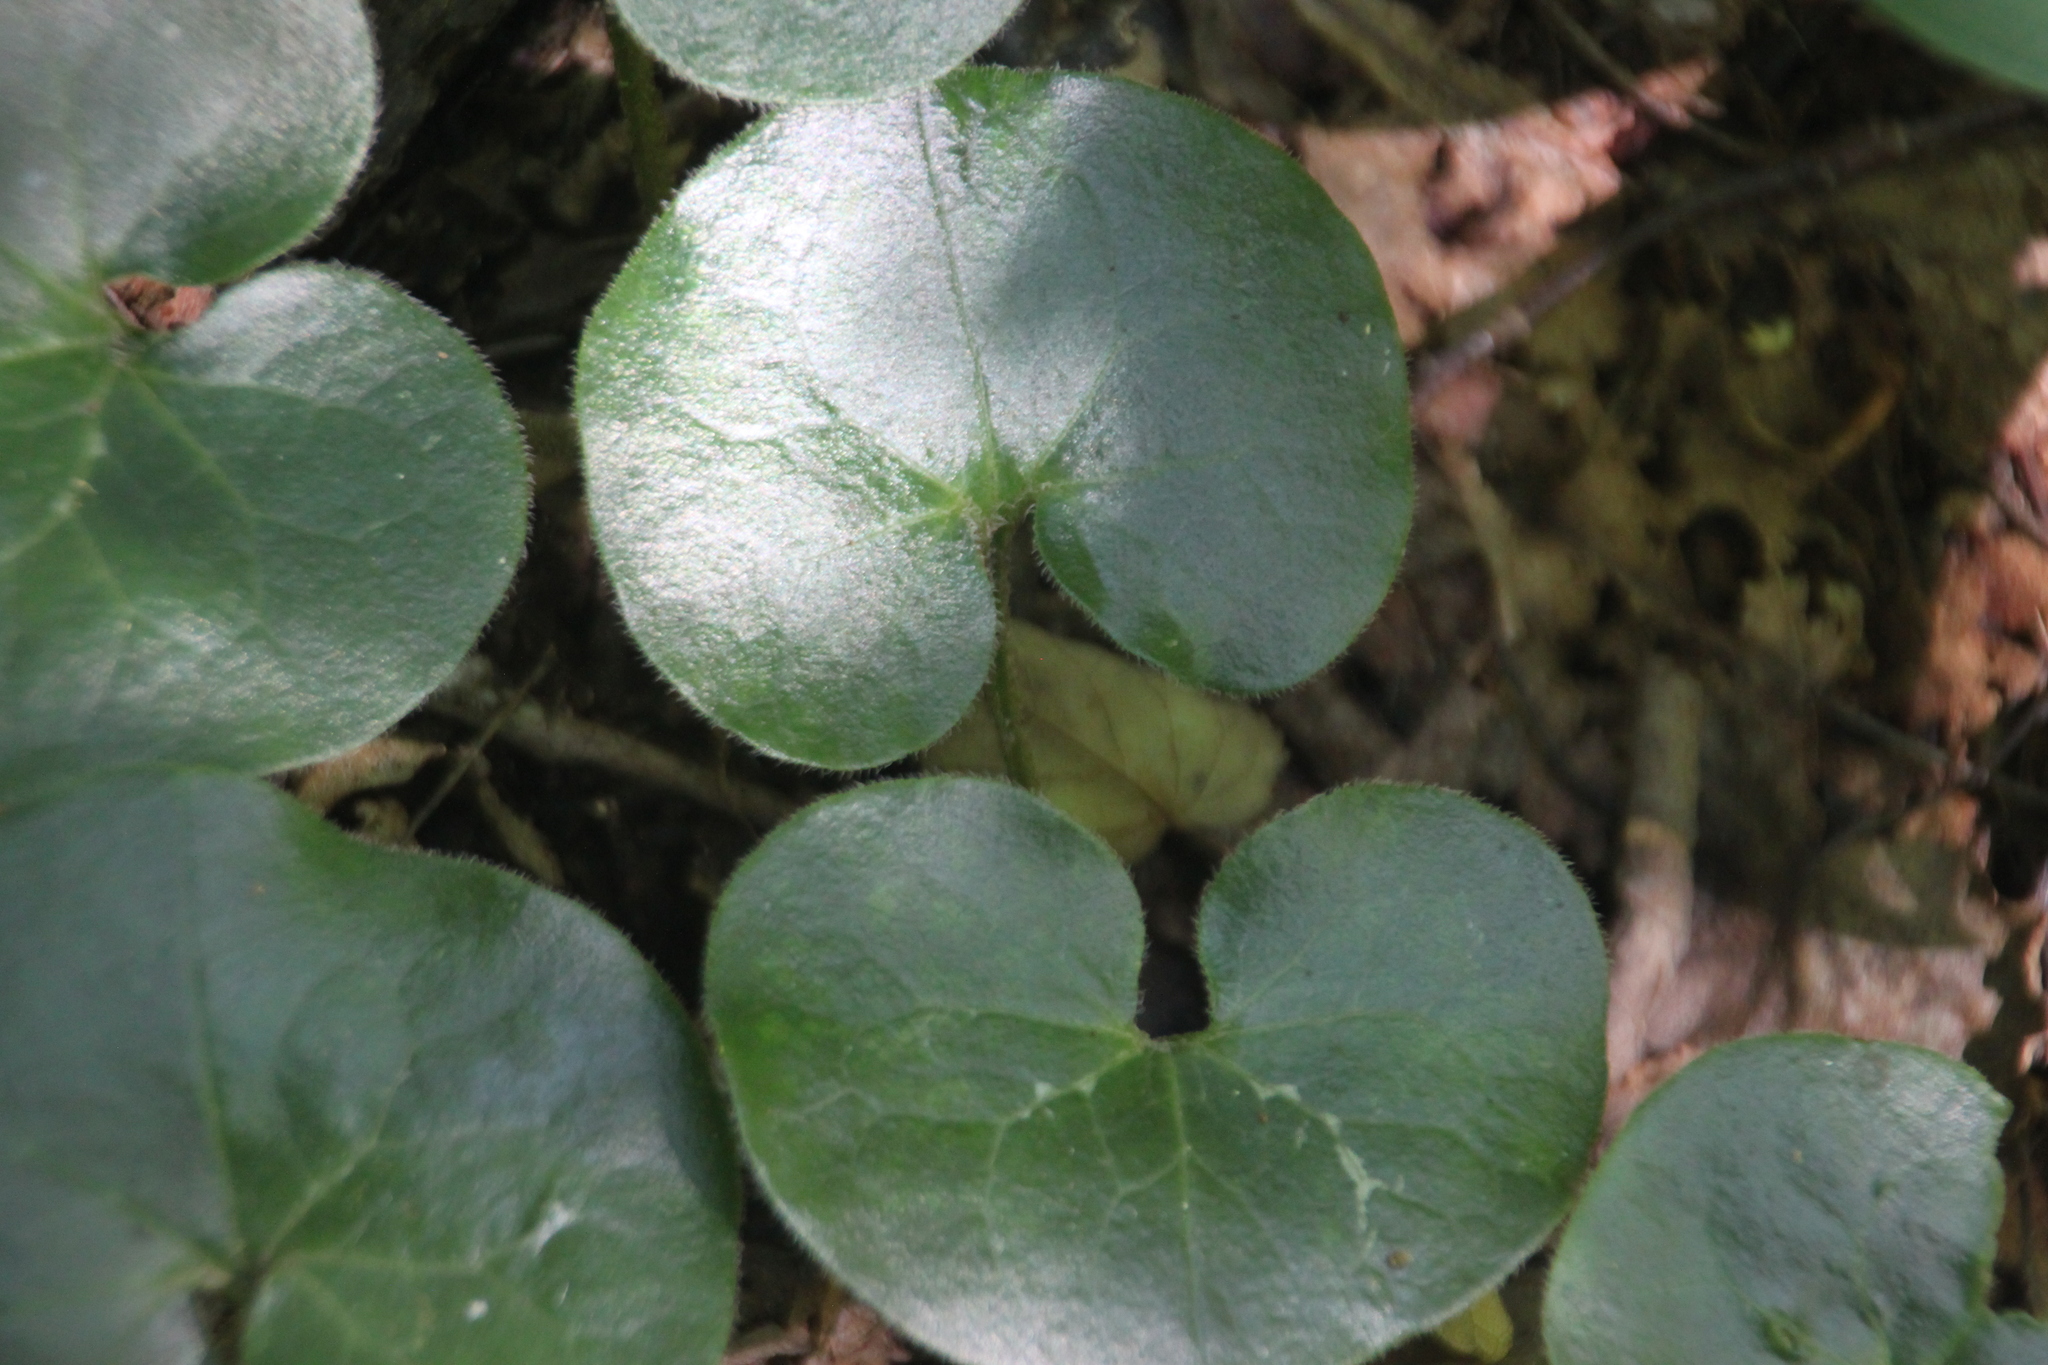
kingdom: Plantae
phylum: Tracheophyta
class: Magnoliopsida
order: Piperales
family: Aristolochiaceae
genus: Asarum
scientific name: Asarum europaeum
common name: Asarabacca
